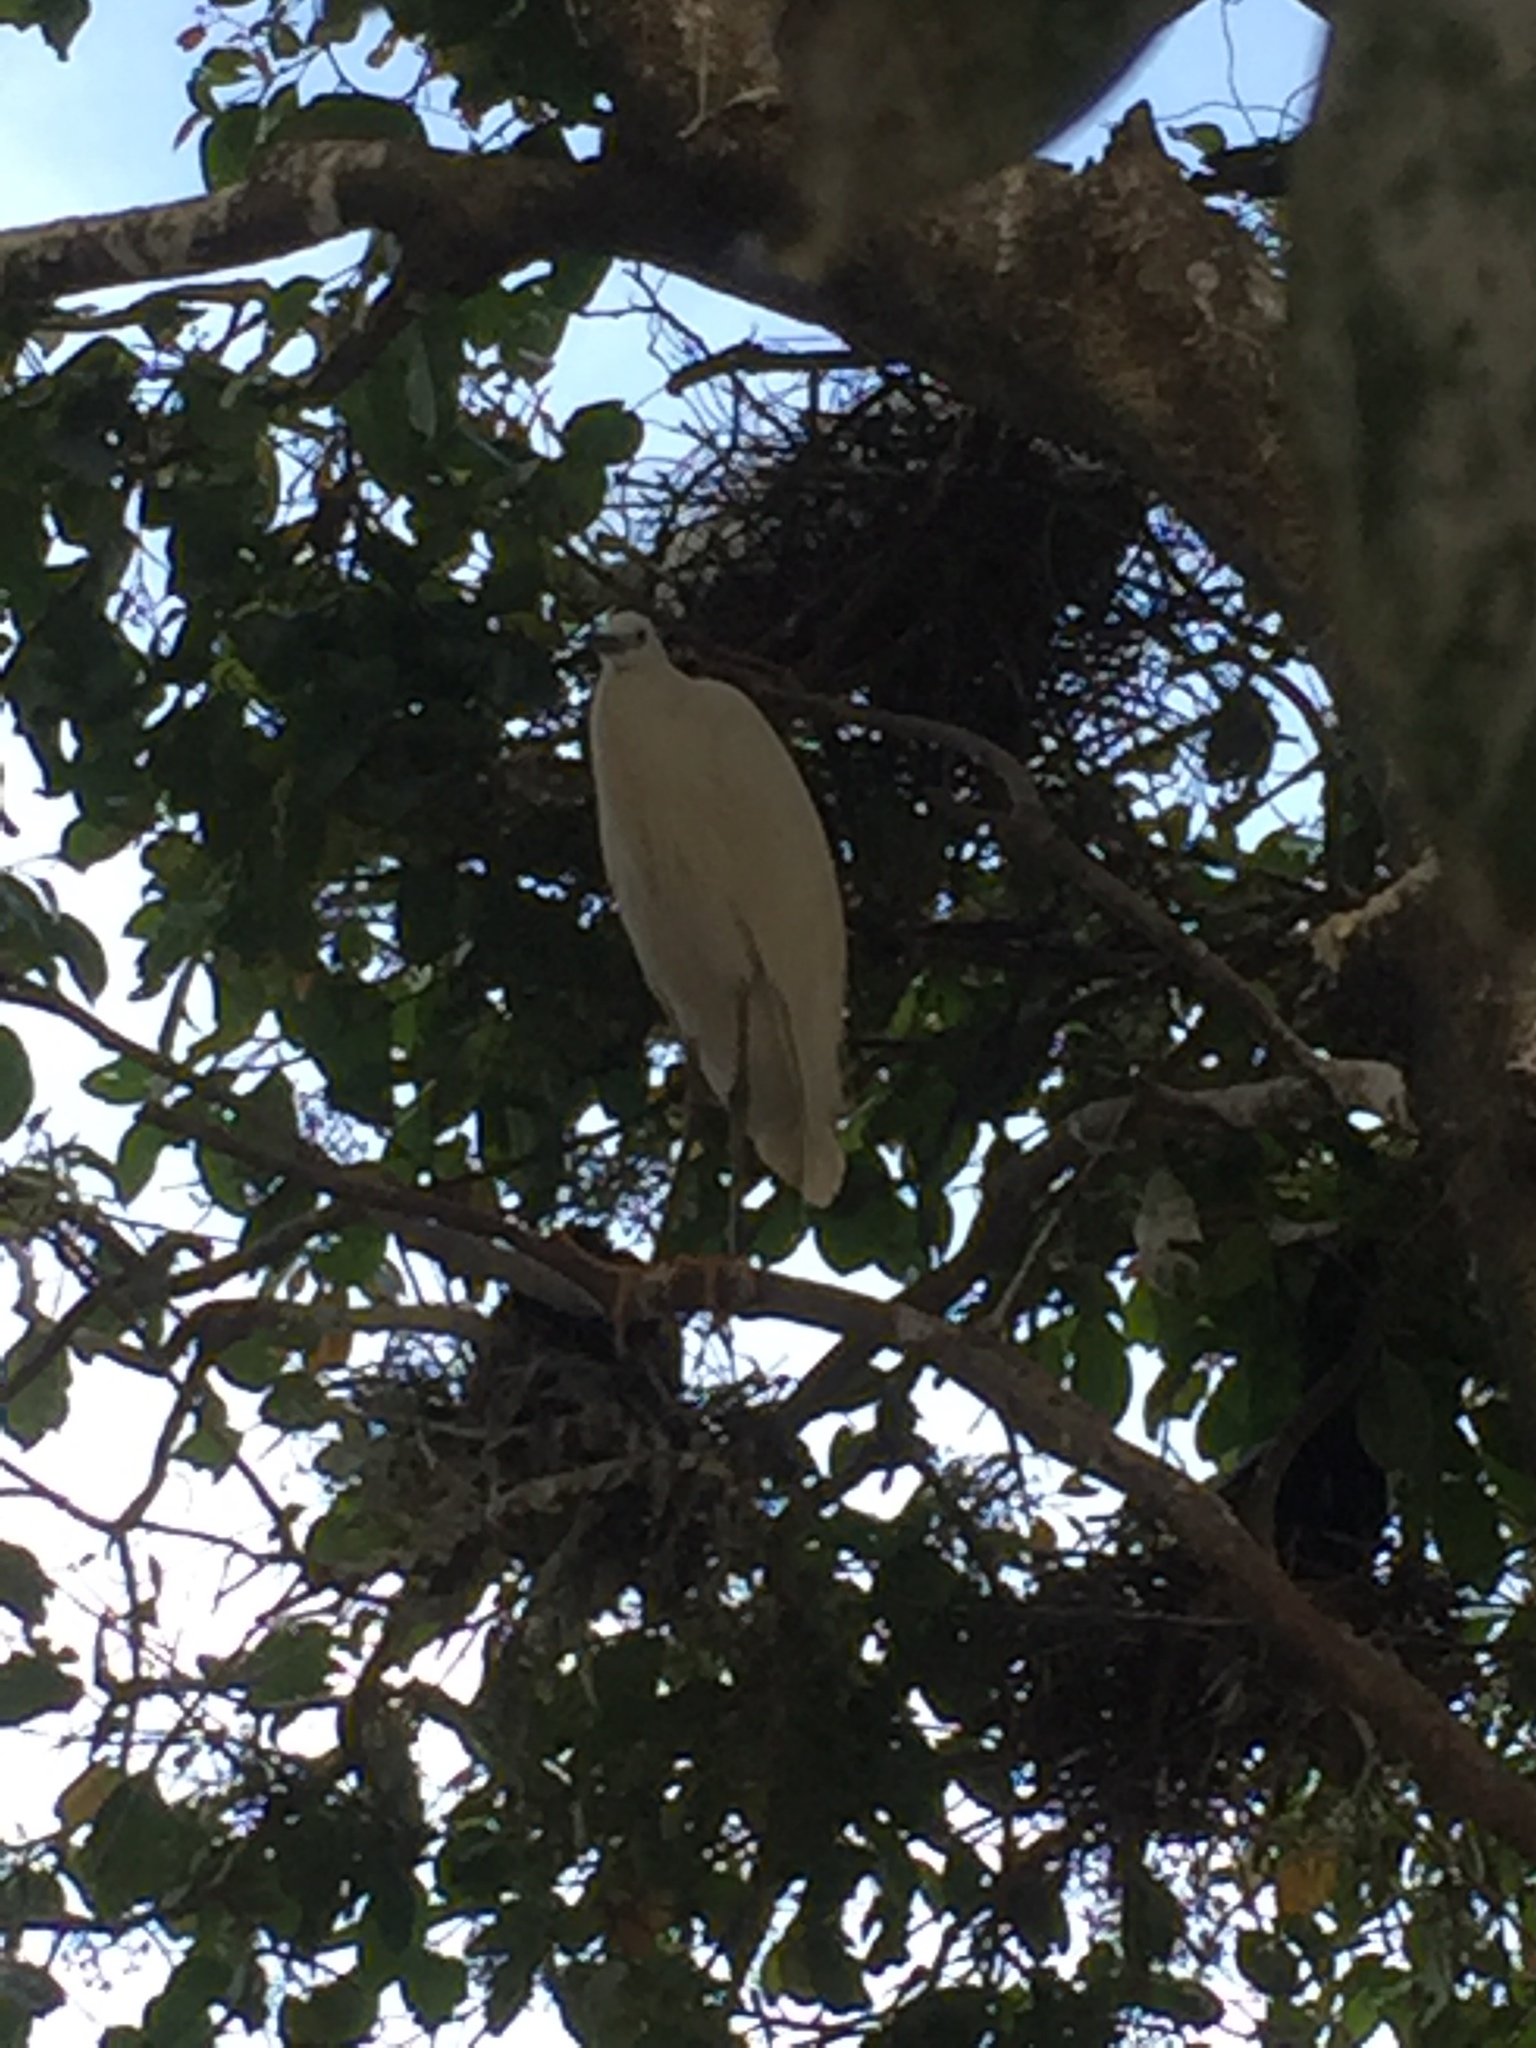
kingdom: Animalia
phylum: Chordata
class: Aves
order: Pelecaniformes
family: Ardeidae
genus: Egretta
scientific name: Egretta garzetta
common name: Little egret
